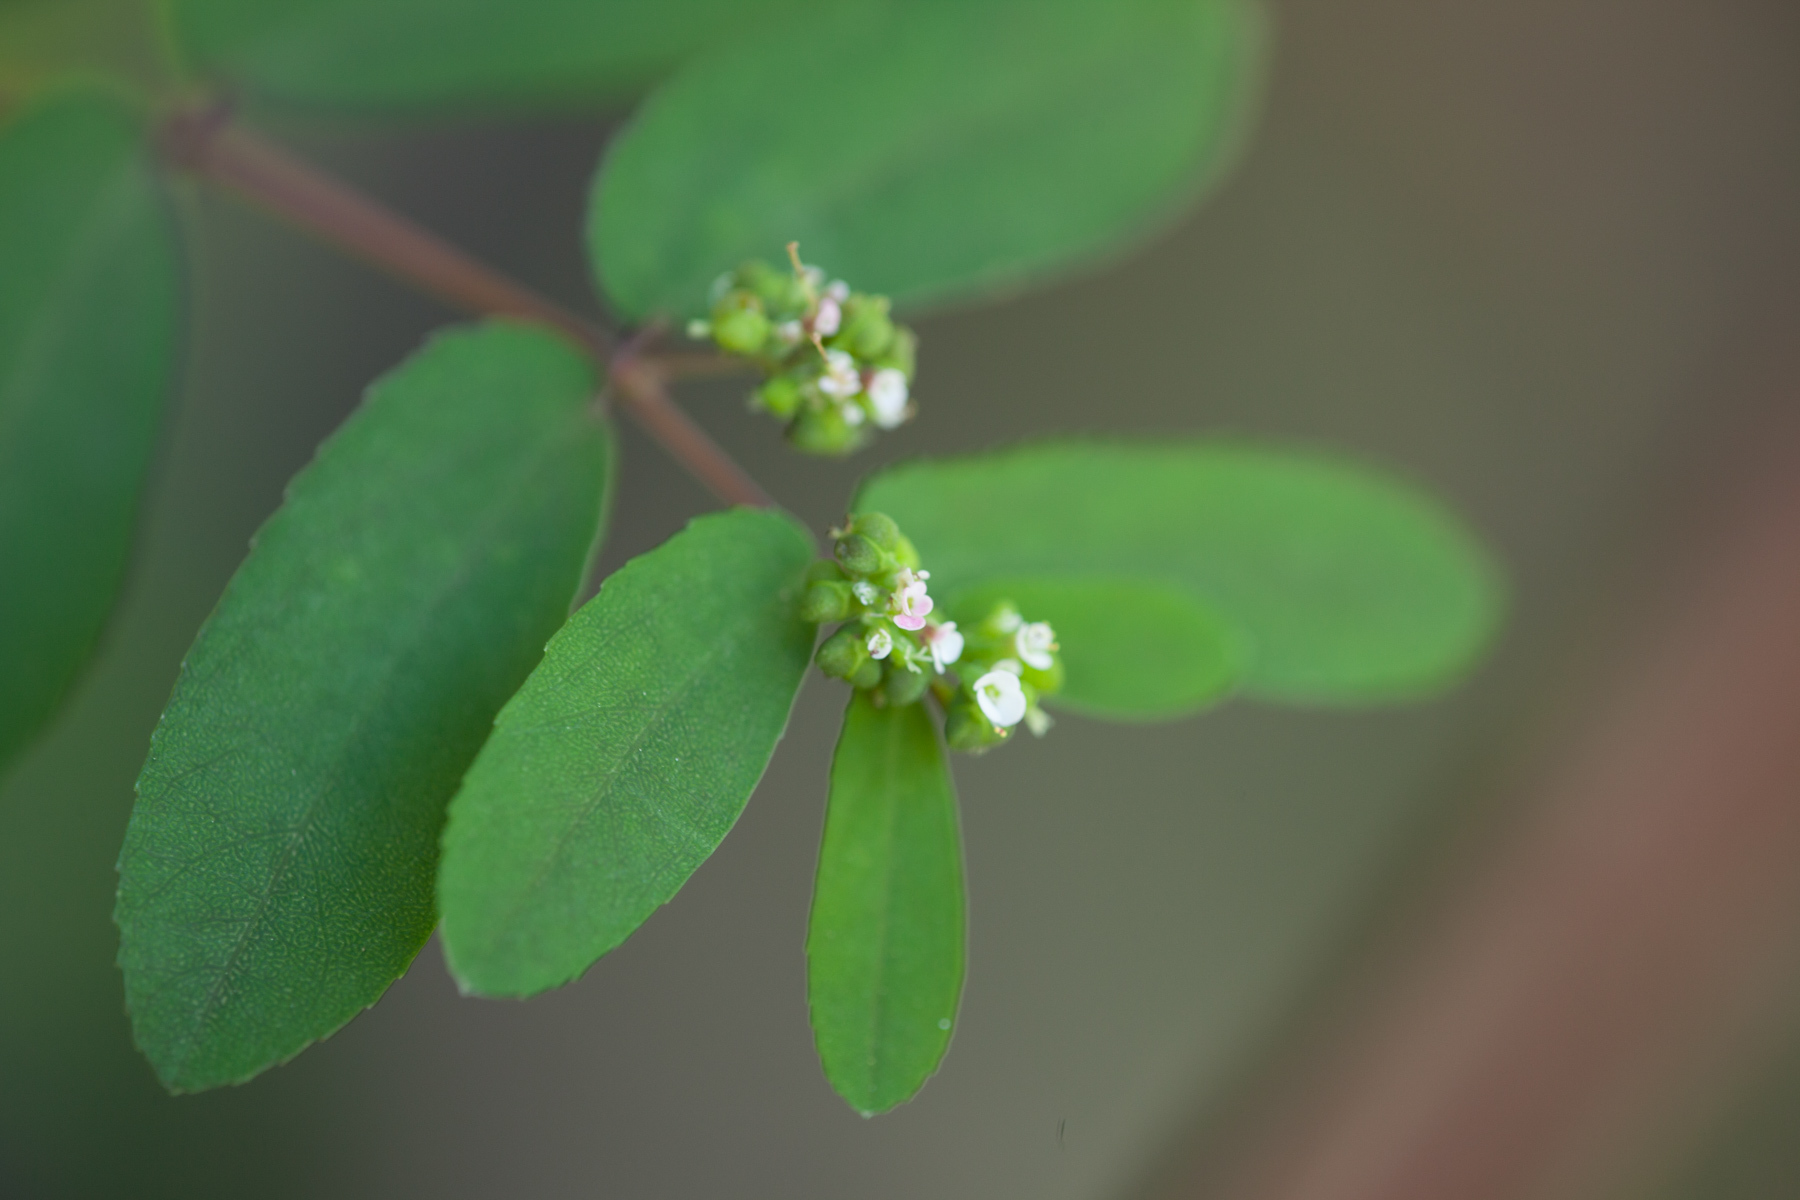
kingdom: Plantae
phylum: Tracheophyta
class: Magnoliopsida
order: Malpighiales
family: Euphorbiaceae
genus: Euphorbia
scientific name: Euphorbia hypericifolia
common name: Graceful sandmat
